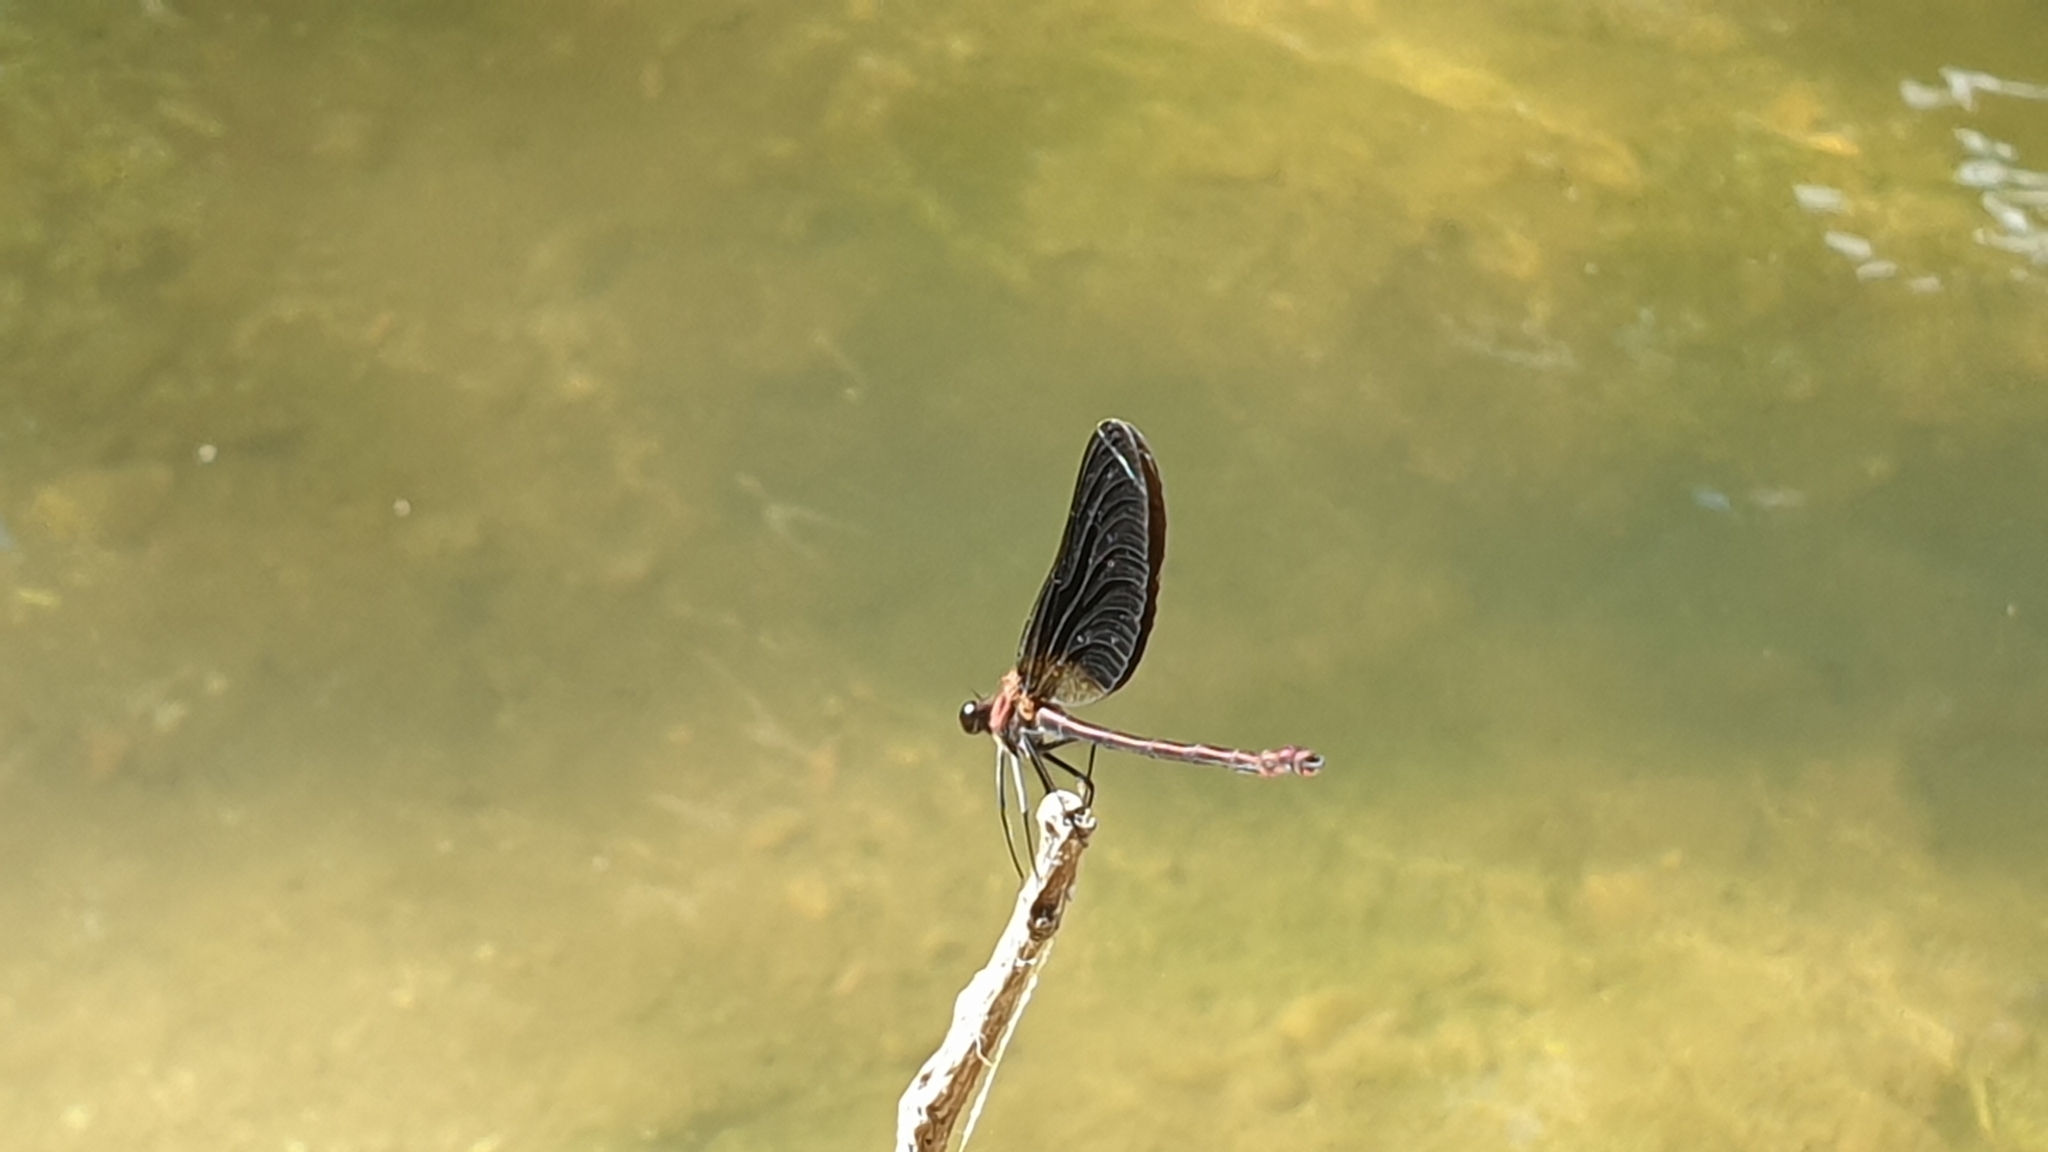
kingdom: Animalia
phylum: Arthropoda
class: Insecta
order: Odonata
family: Calopterygidae
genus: Calopteryx
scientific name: Calopteryx haemorrhoidalis
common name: Copper demoiselle
